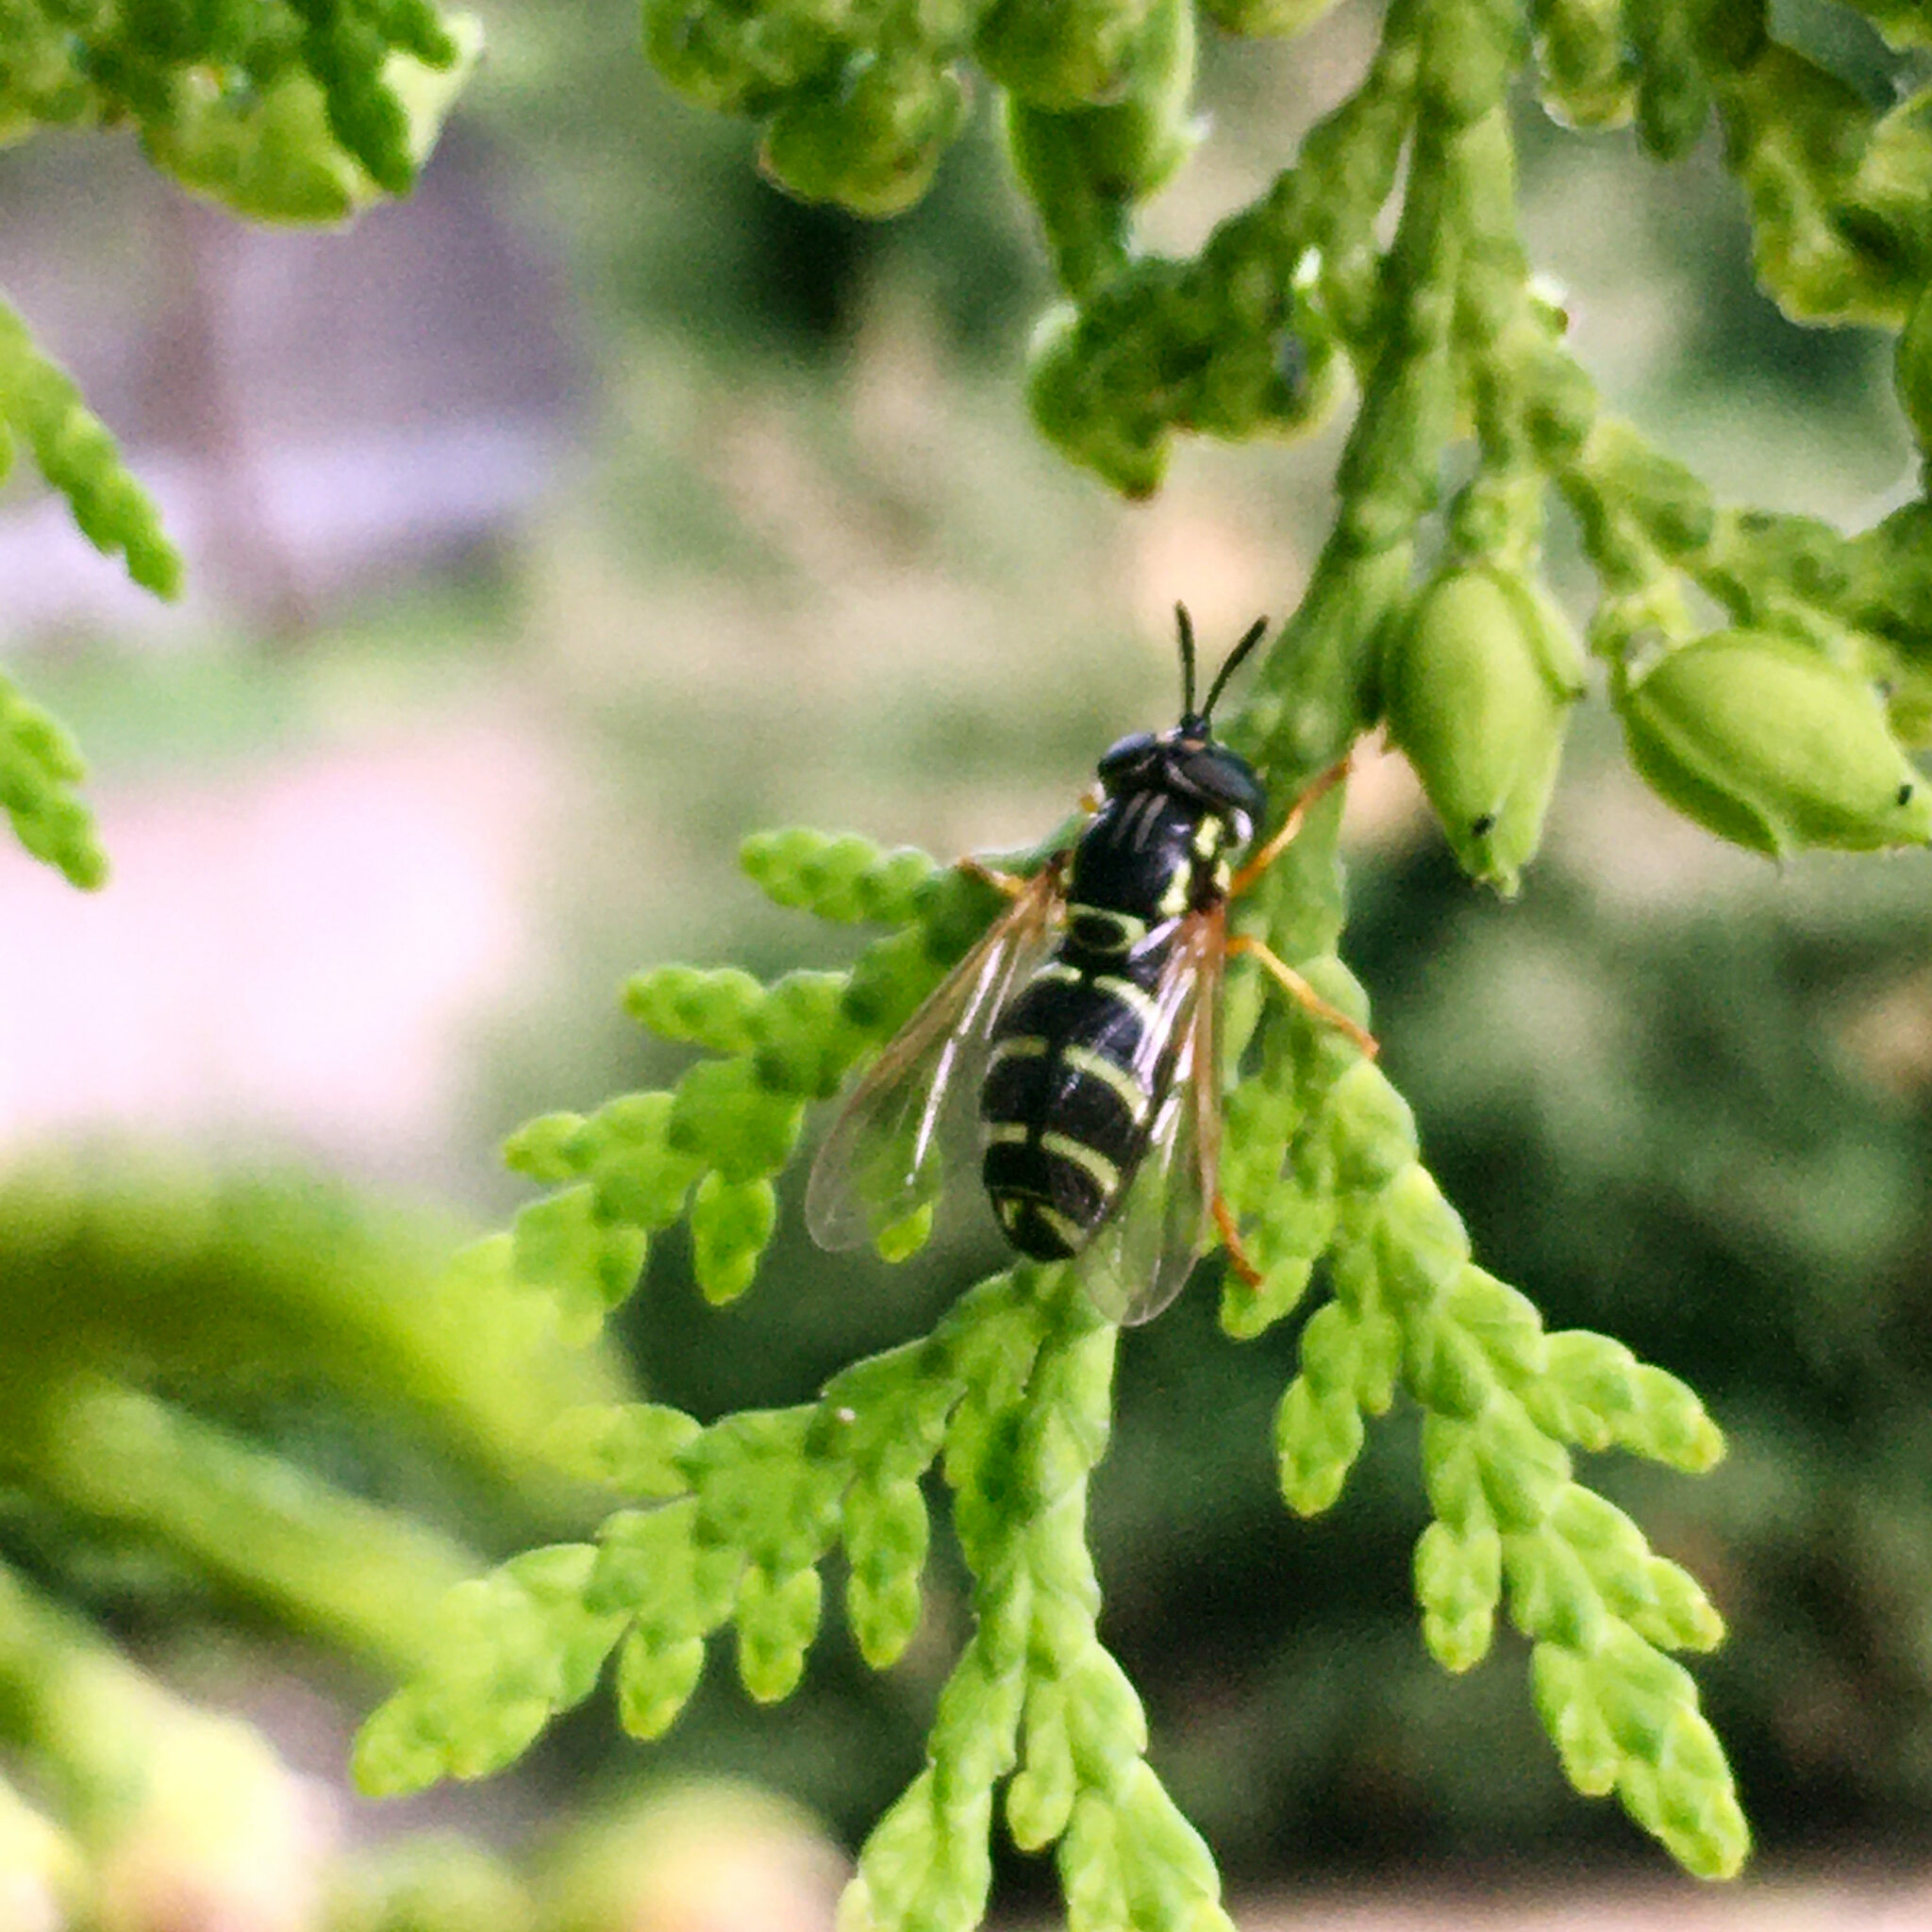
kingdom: Animalia
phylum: Arthropoda
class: Insecta
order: Diptera
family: Syrphidae
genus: Chrysotoxum
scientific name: Chrysotoxum festivum
